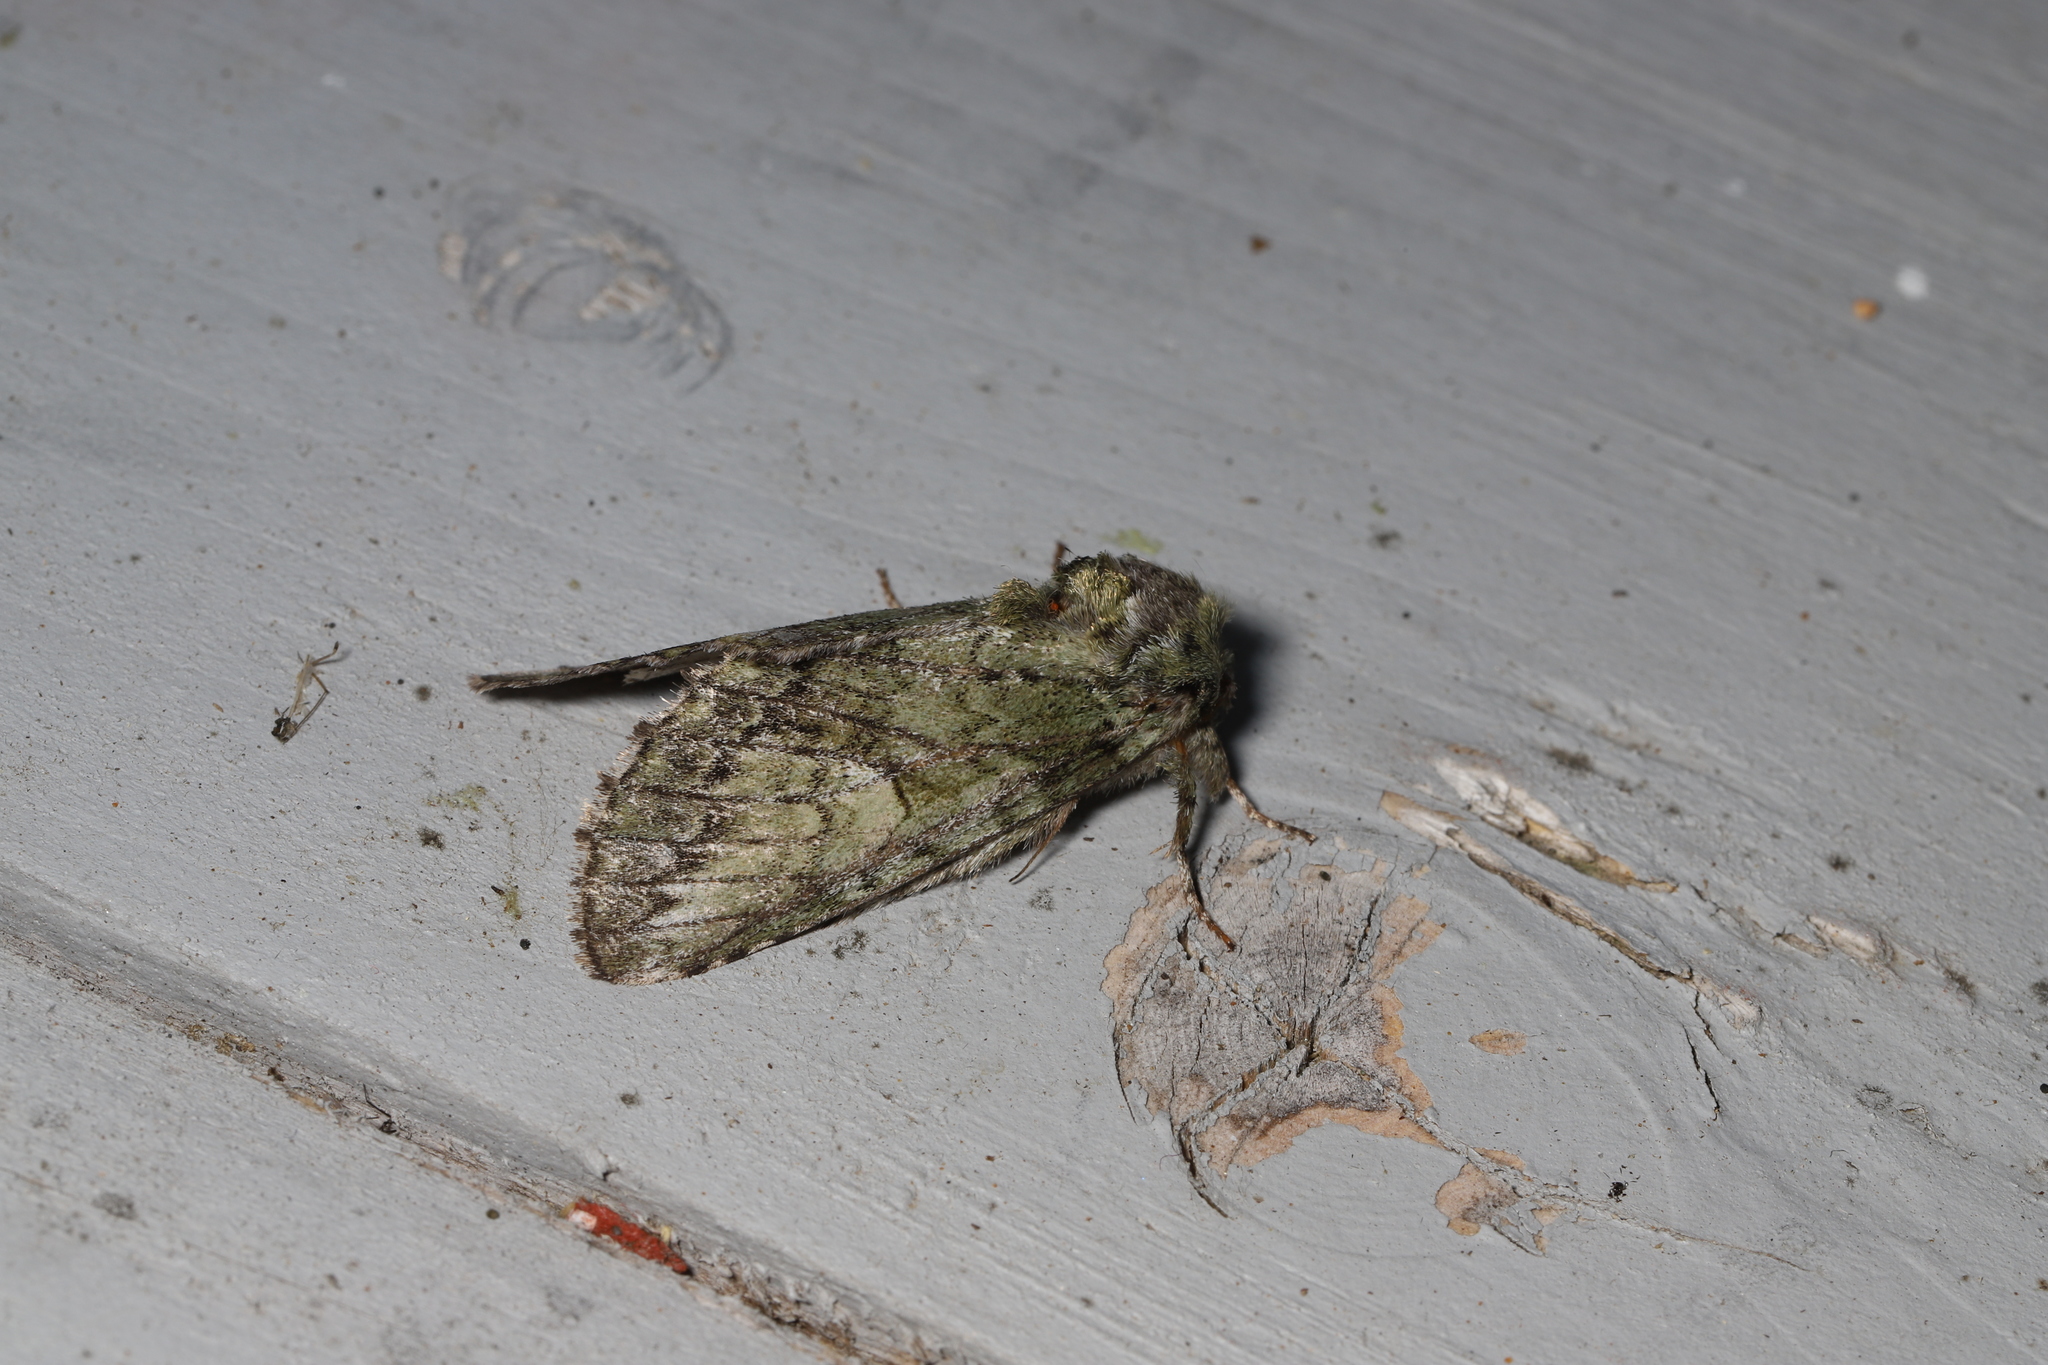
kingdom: Animalia
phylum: Arthropoda
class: Insecta
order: Lepidoptera
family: Notodontidae
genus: Heterocampa
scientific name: Heterocampa
